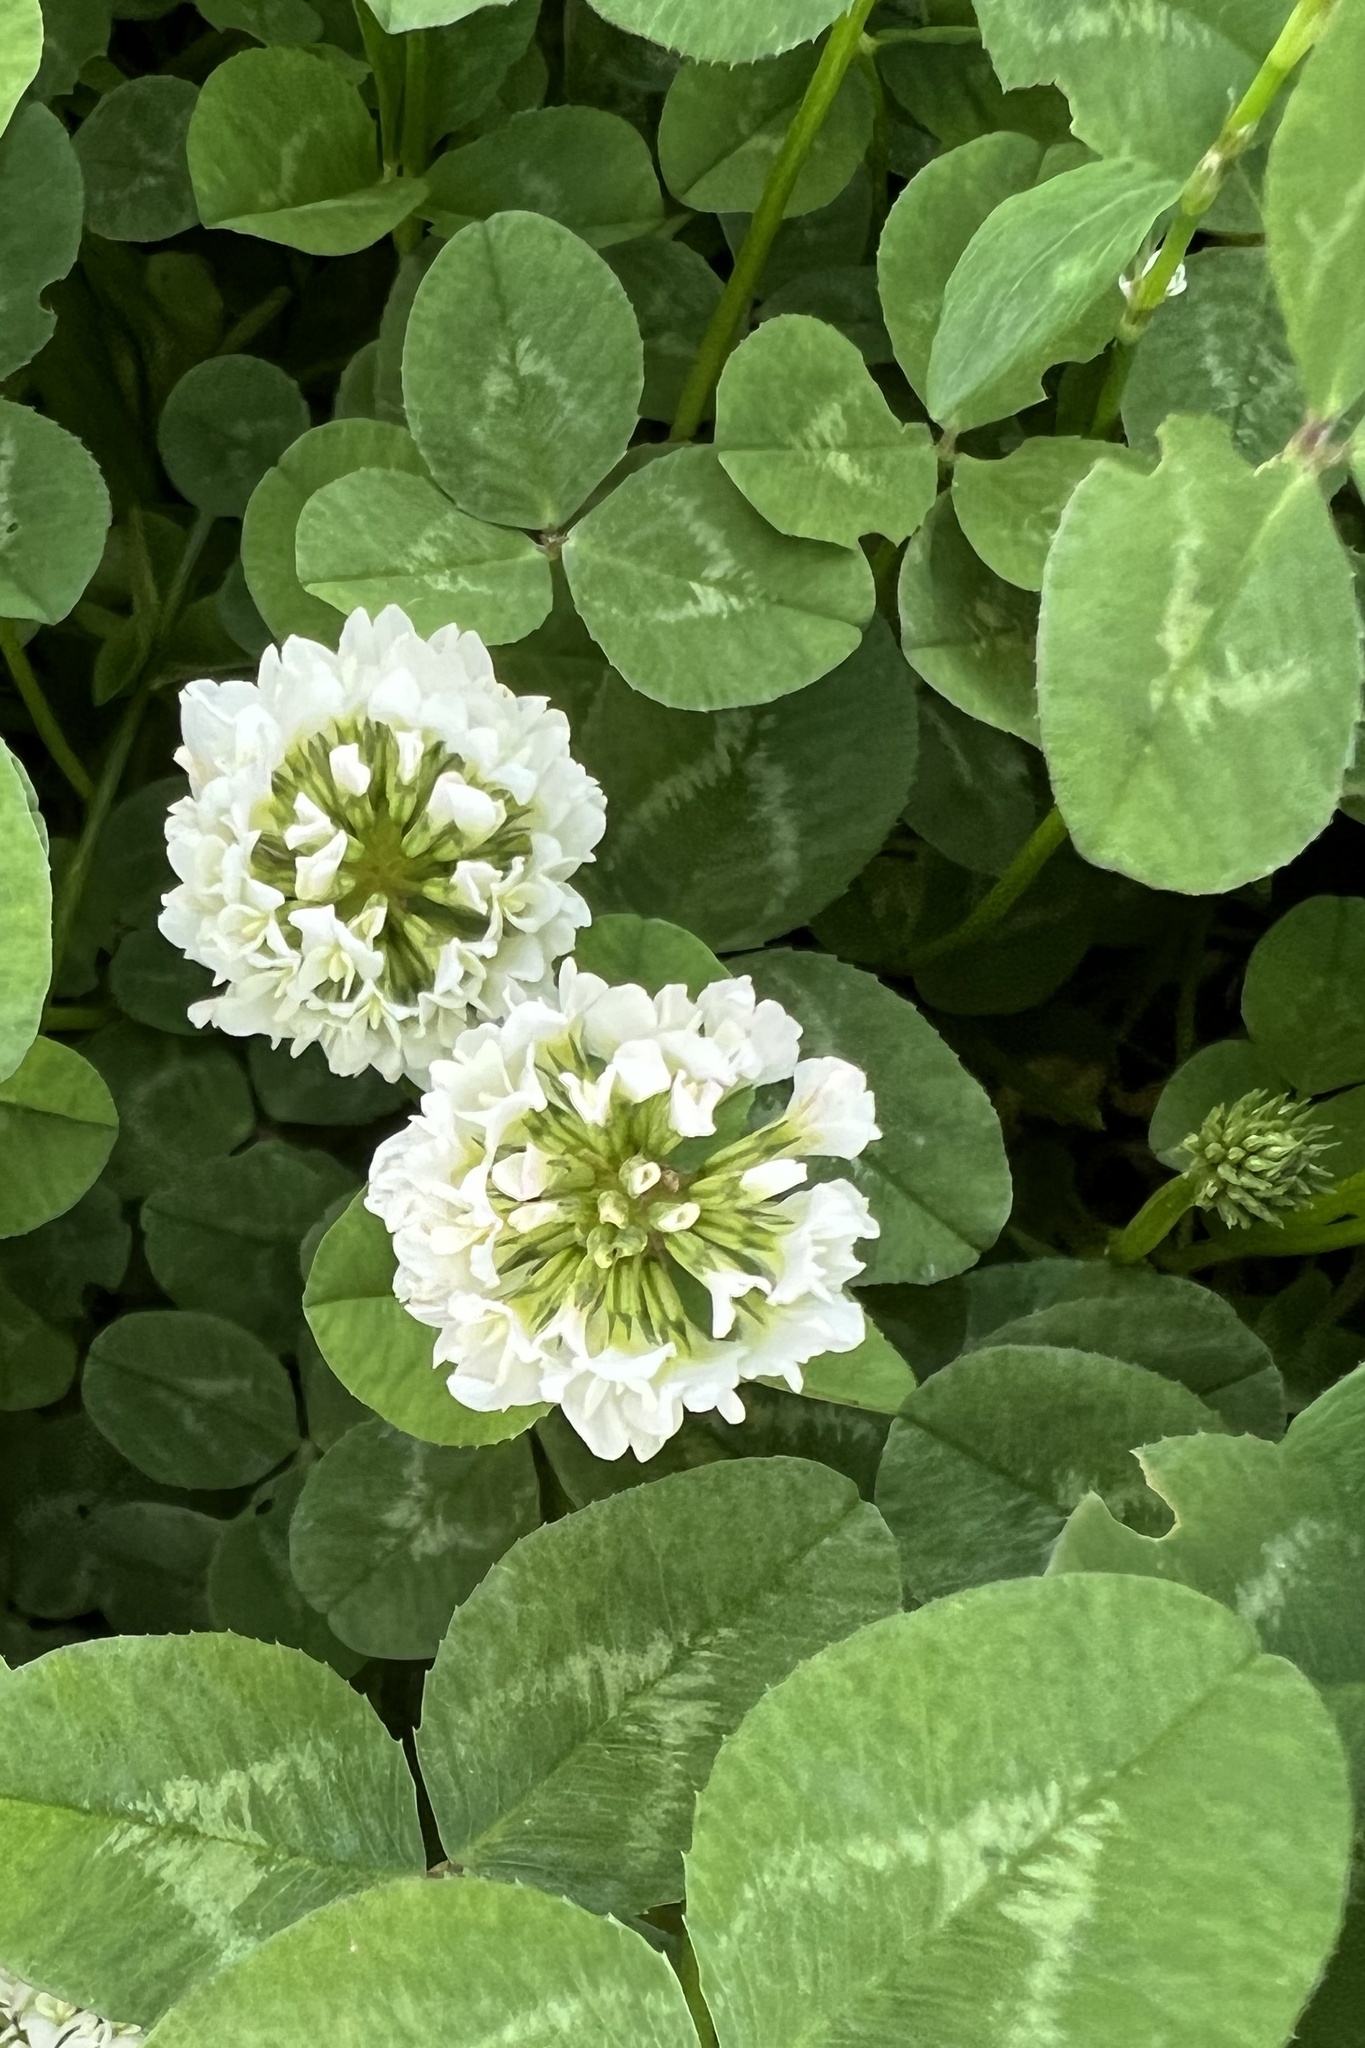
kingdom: Plantae
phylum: Tracheophyta
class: Magnoliopsida
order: Fabales
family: Fabaceae
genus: Trifolium
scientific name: Trifolium repens
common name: White clover
